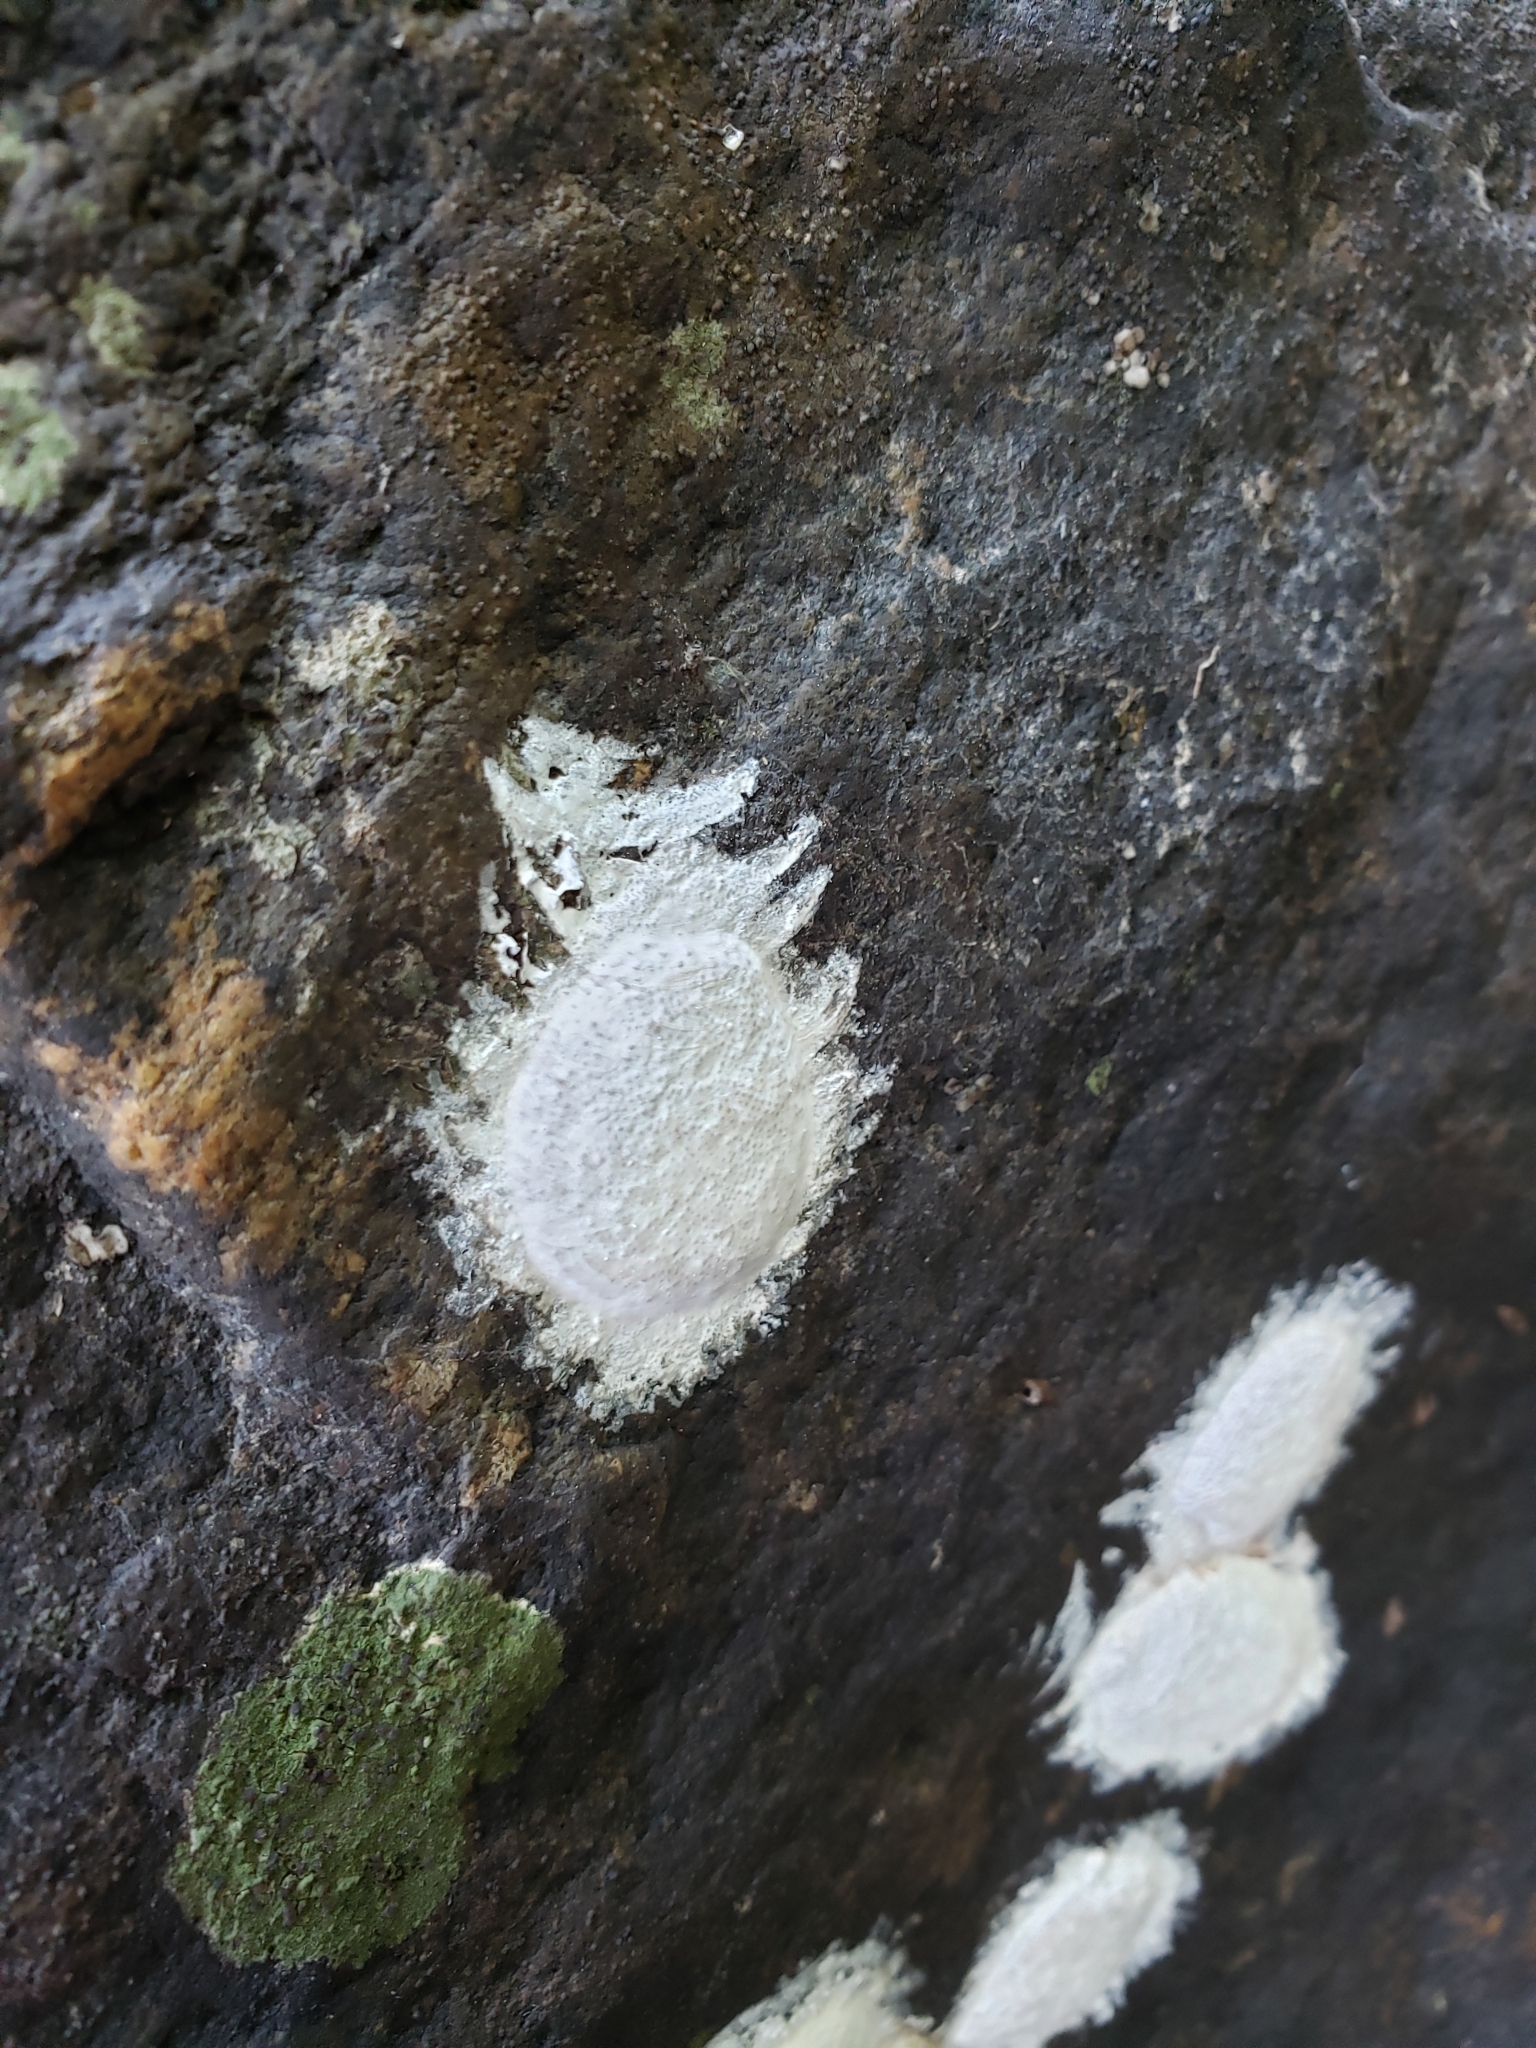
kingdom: Animalia
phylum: Arthropoda
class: Insecta
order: Megaloptera
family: Corydalidae
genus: Corydalus
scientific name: Corydalus cornutus
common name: Dobsonfly
